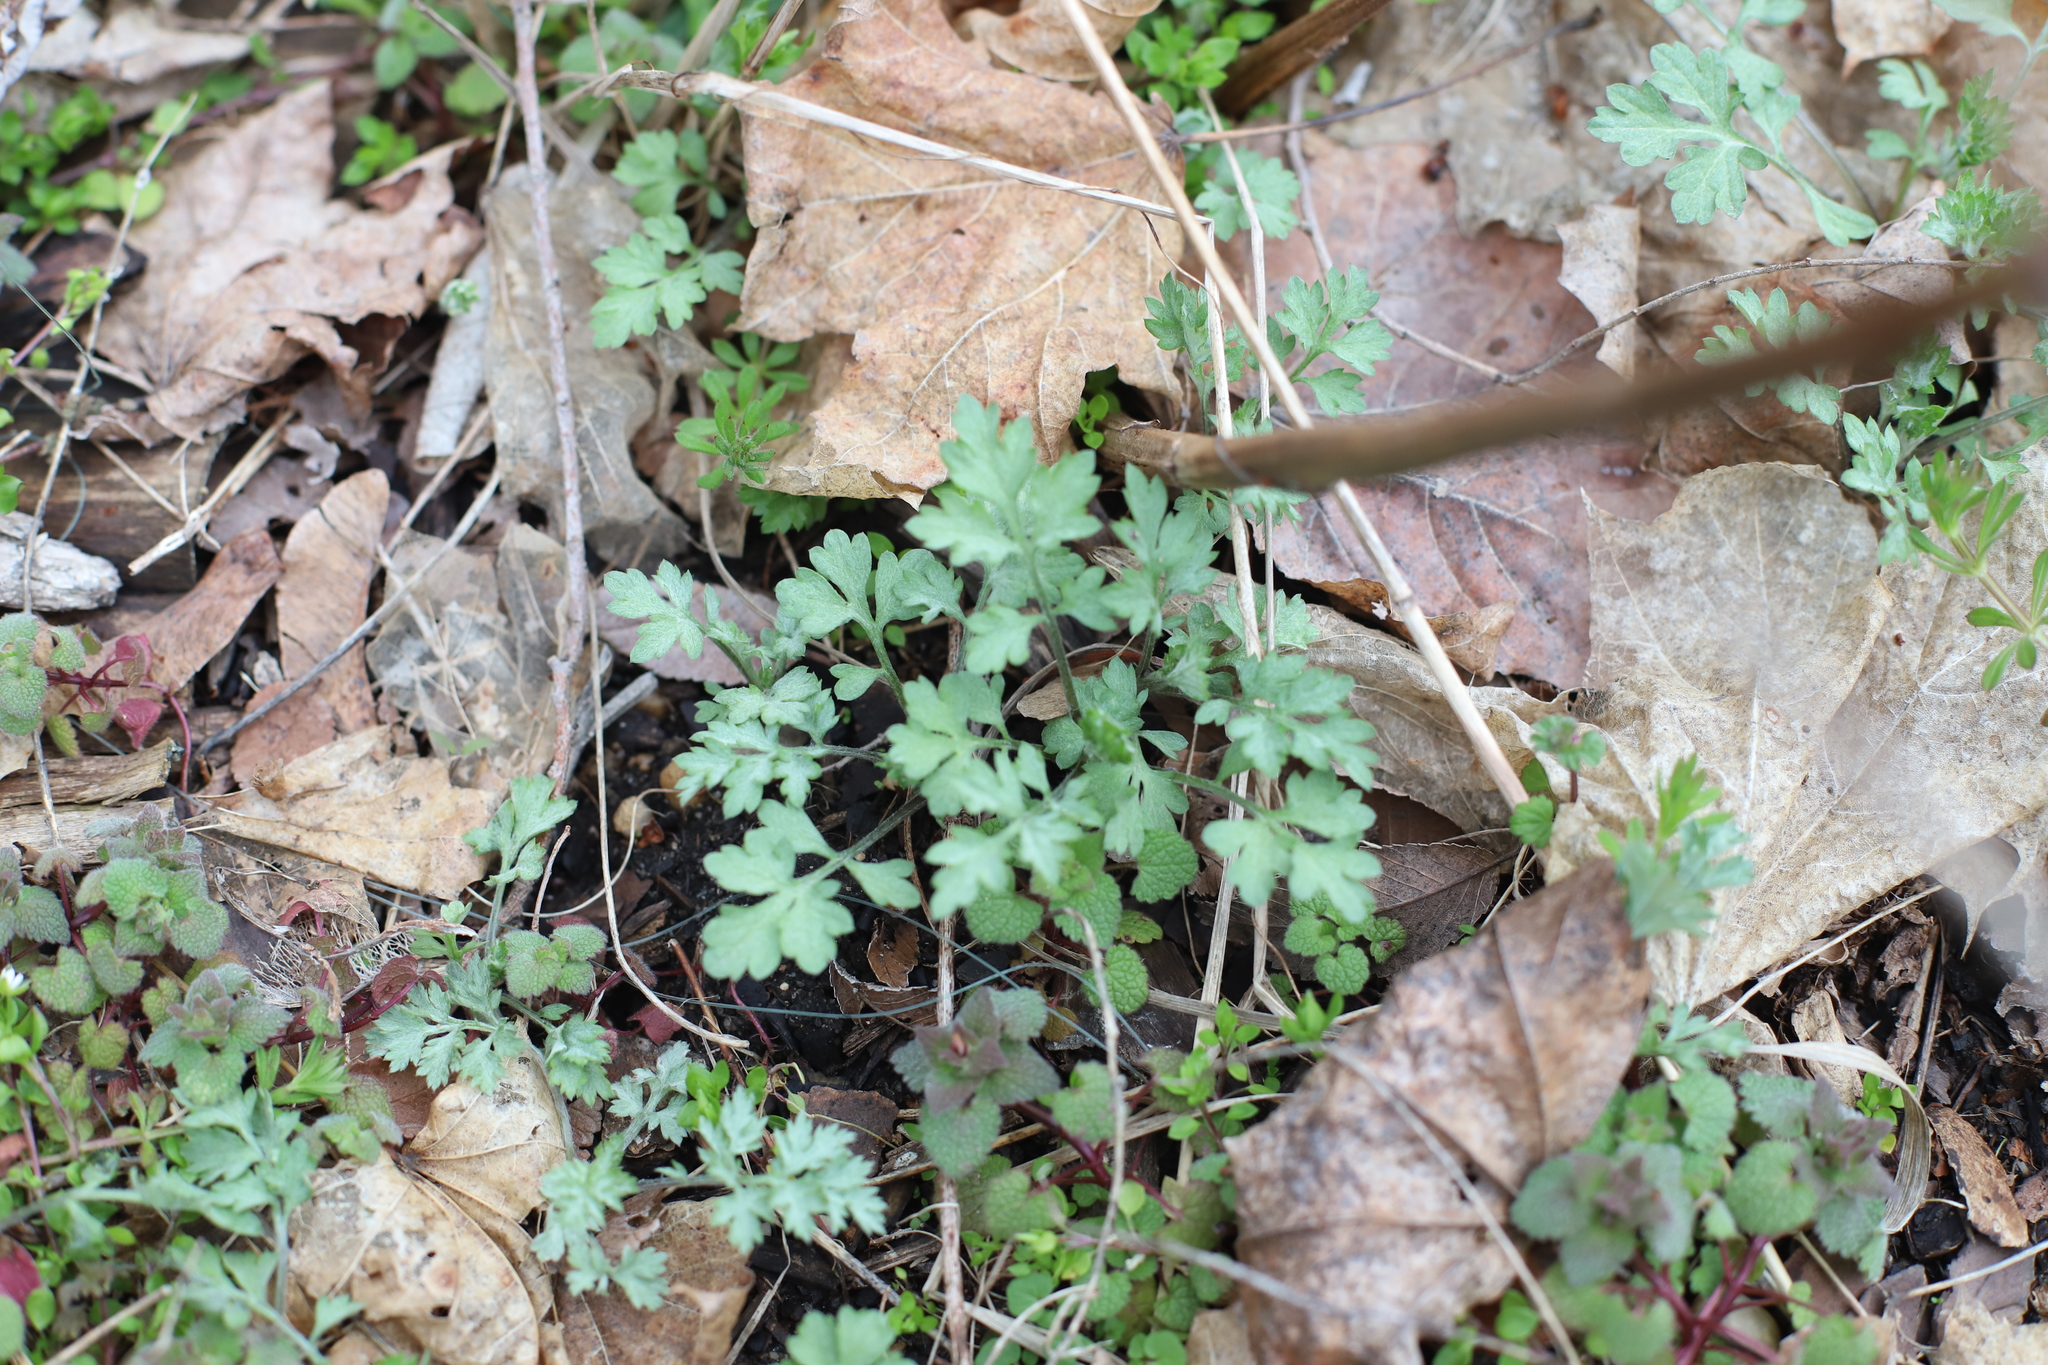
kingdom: Plantae
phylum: Tracheophyta
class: Magnoliopsida
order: Asterales
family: Asteraceae
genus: Artemisia
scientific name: Artemisia vulgaris
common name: Mugwort
